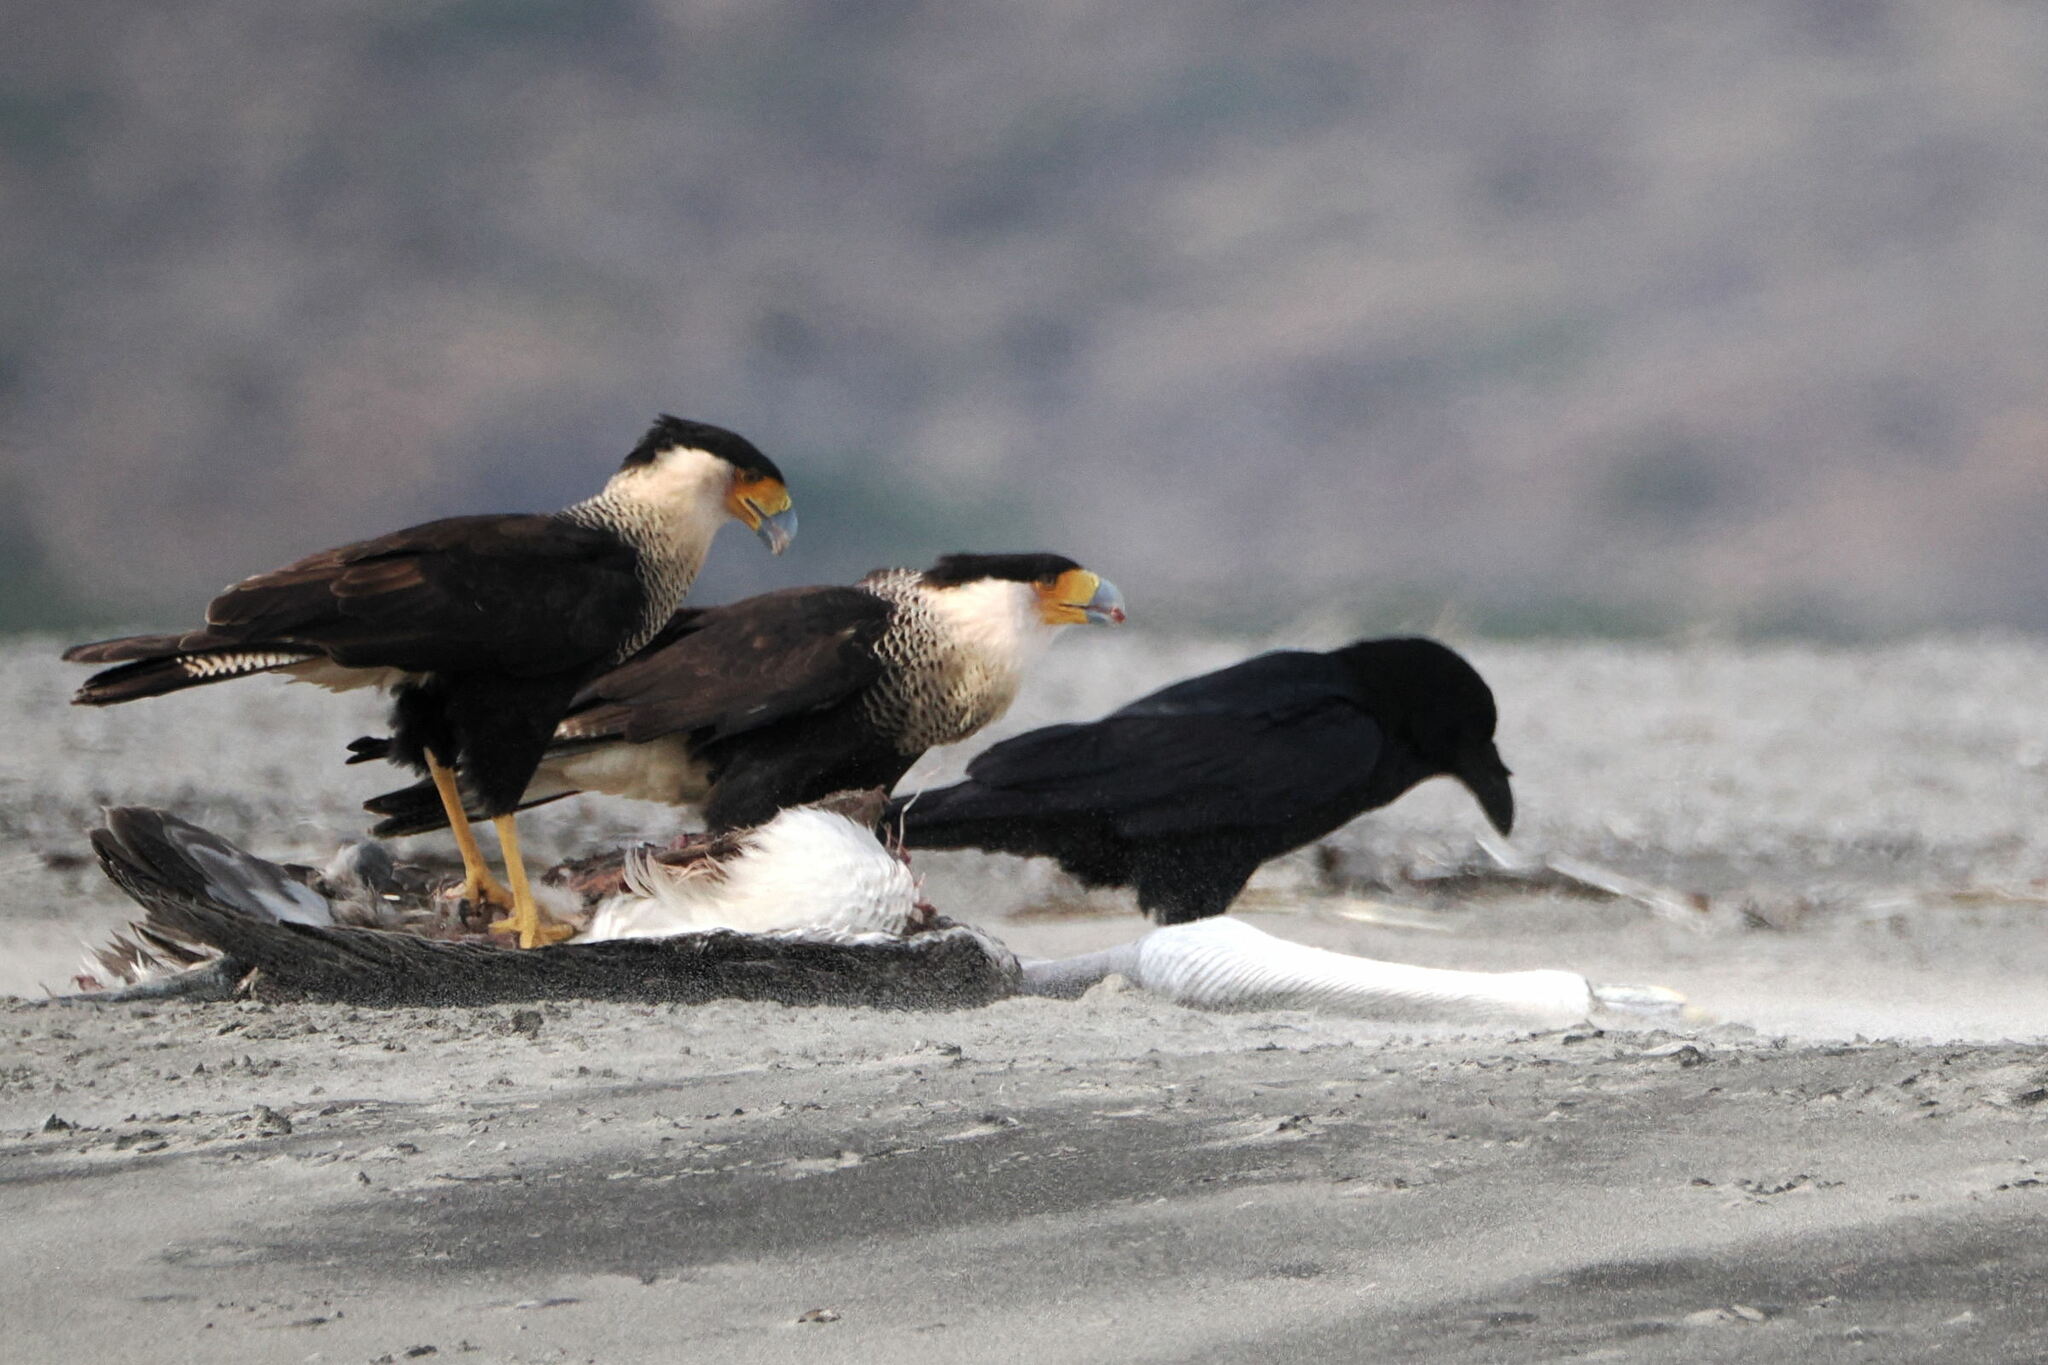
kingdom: Animalia
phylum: Chordata
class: Aves
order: Falconiformes
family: Falconidae
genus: Caracara
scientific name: Caracara plancus
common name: Southern caracara
